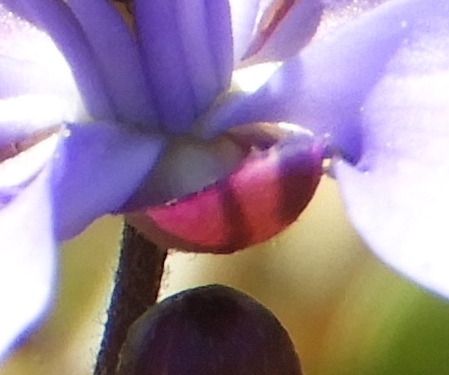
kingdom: Plantae
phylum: Tracheophyta
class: Magnoliopsida
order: Zygophyllales
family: Zygophyllaceae
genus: Guaiacum
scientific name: Guaiacum coulteri
